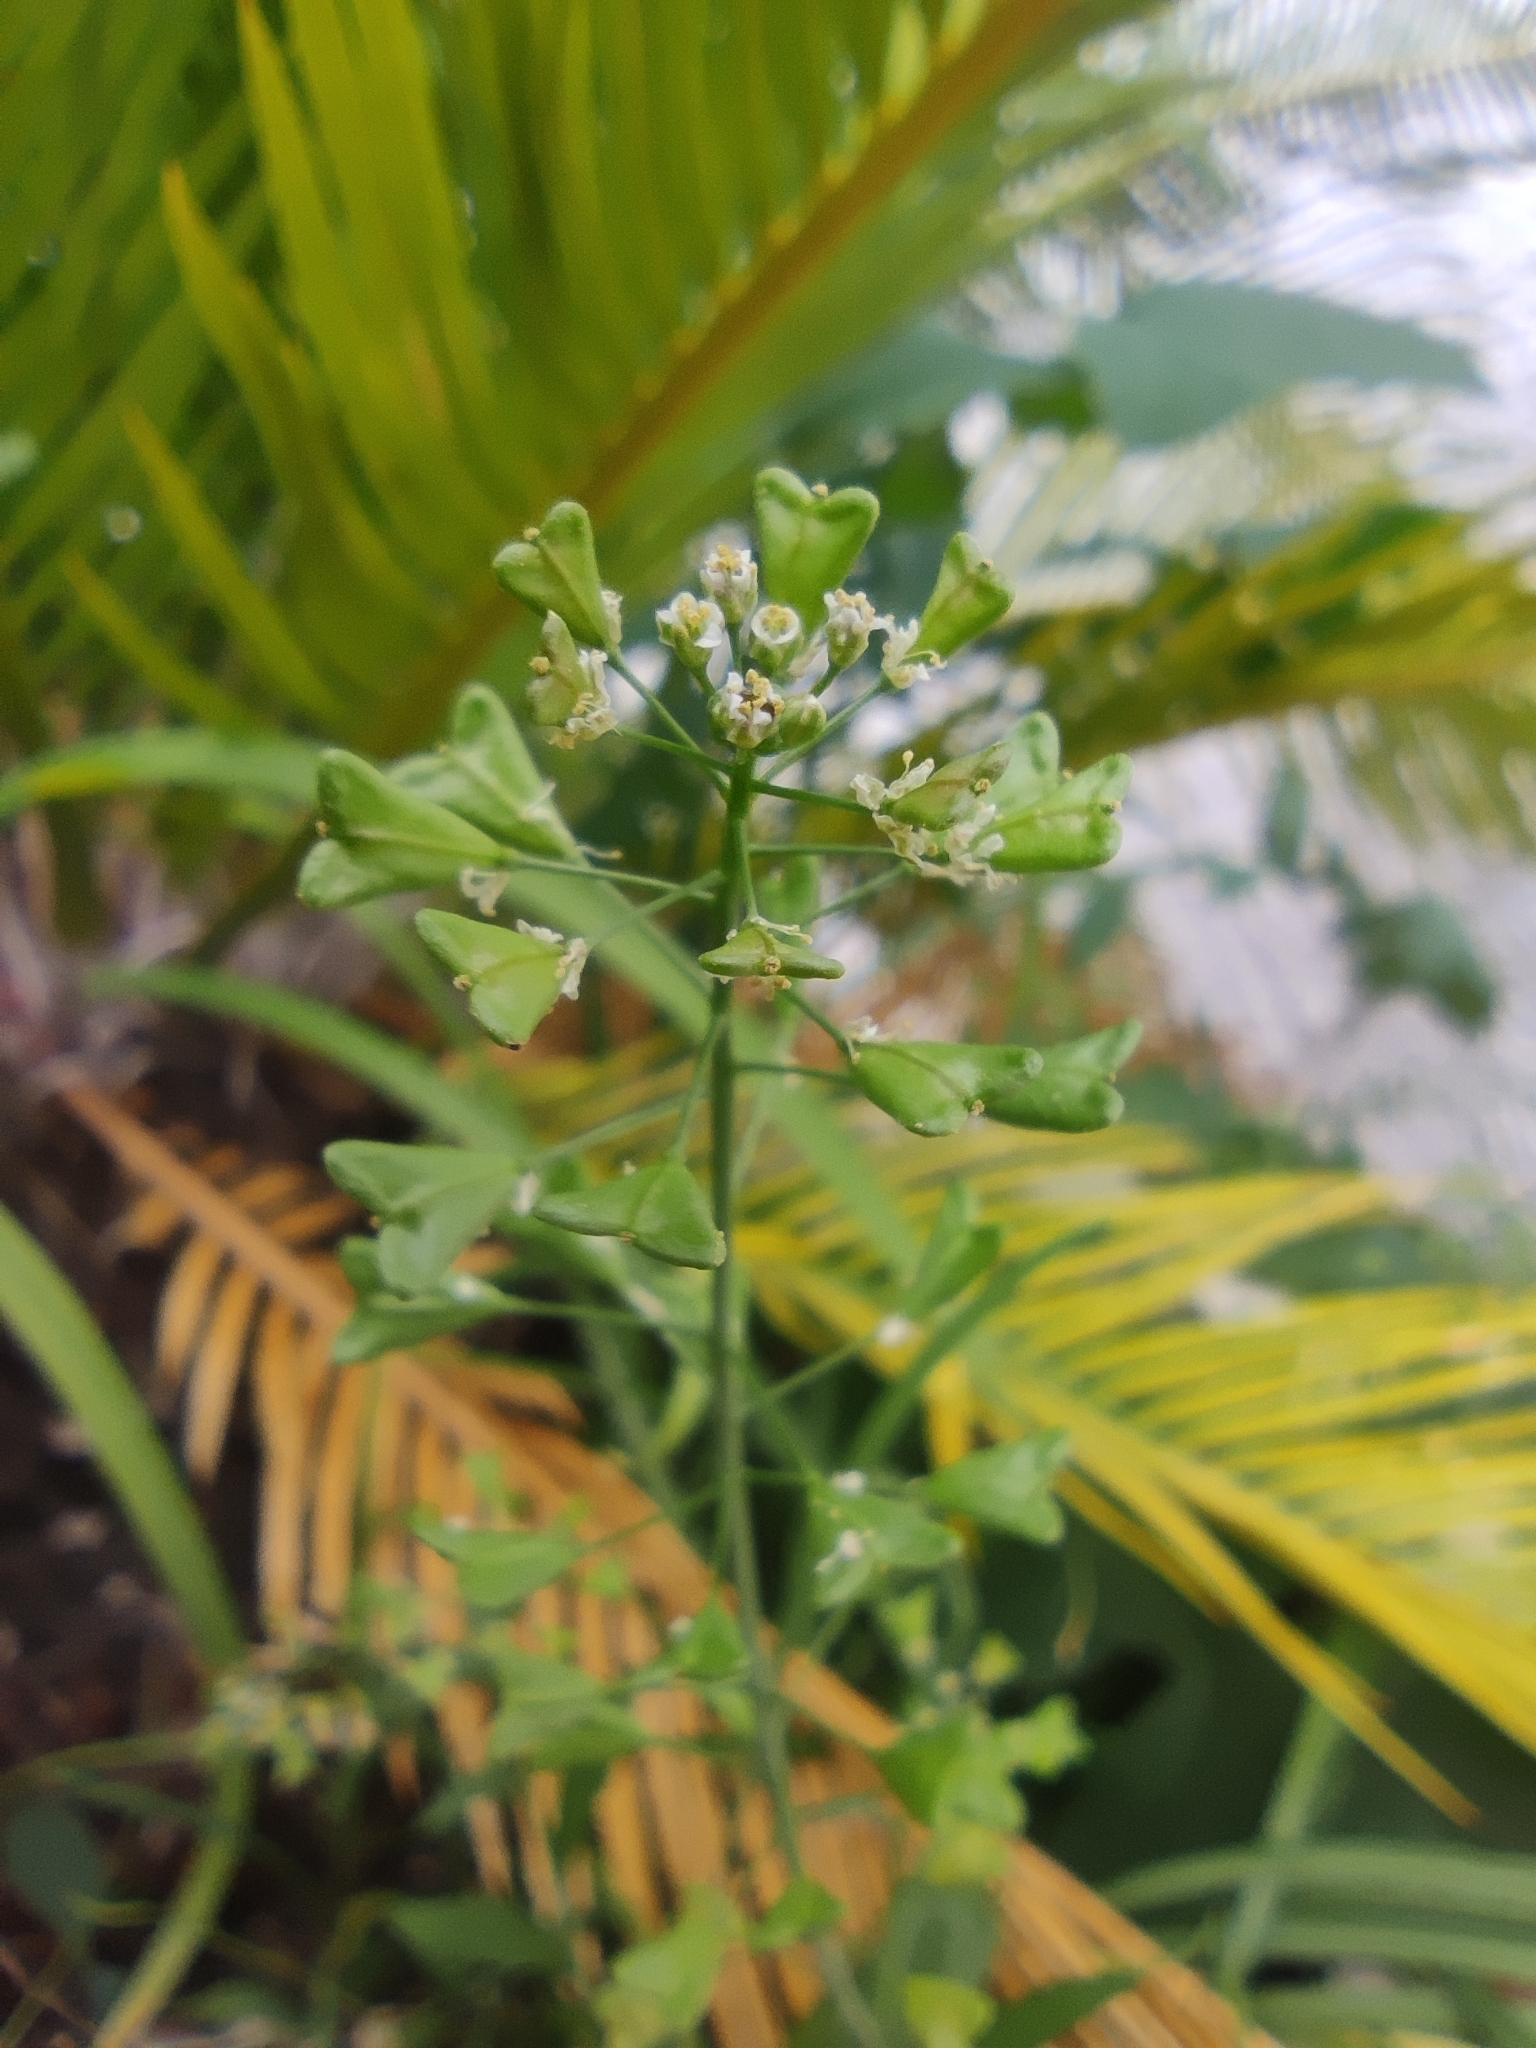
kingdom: Plantae
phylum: Tracheophyta
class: Magnoliopsida
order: Brassicales
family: Brassicaceae
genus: Capsella
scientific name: Capsella bursa-pastoris
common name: Shepherd's purse
